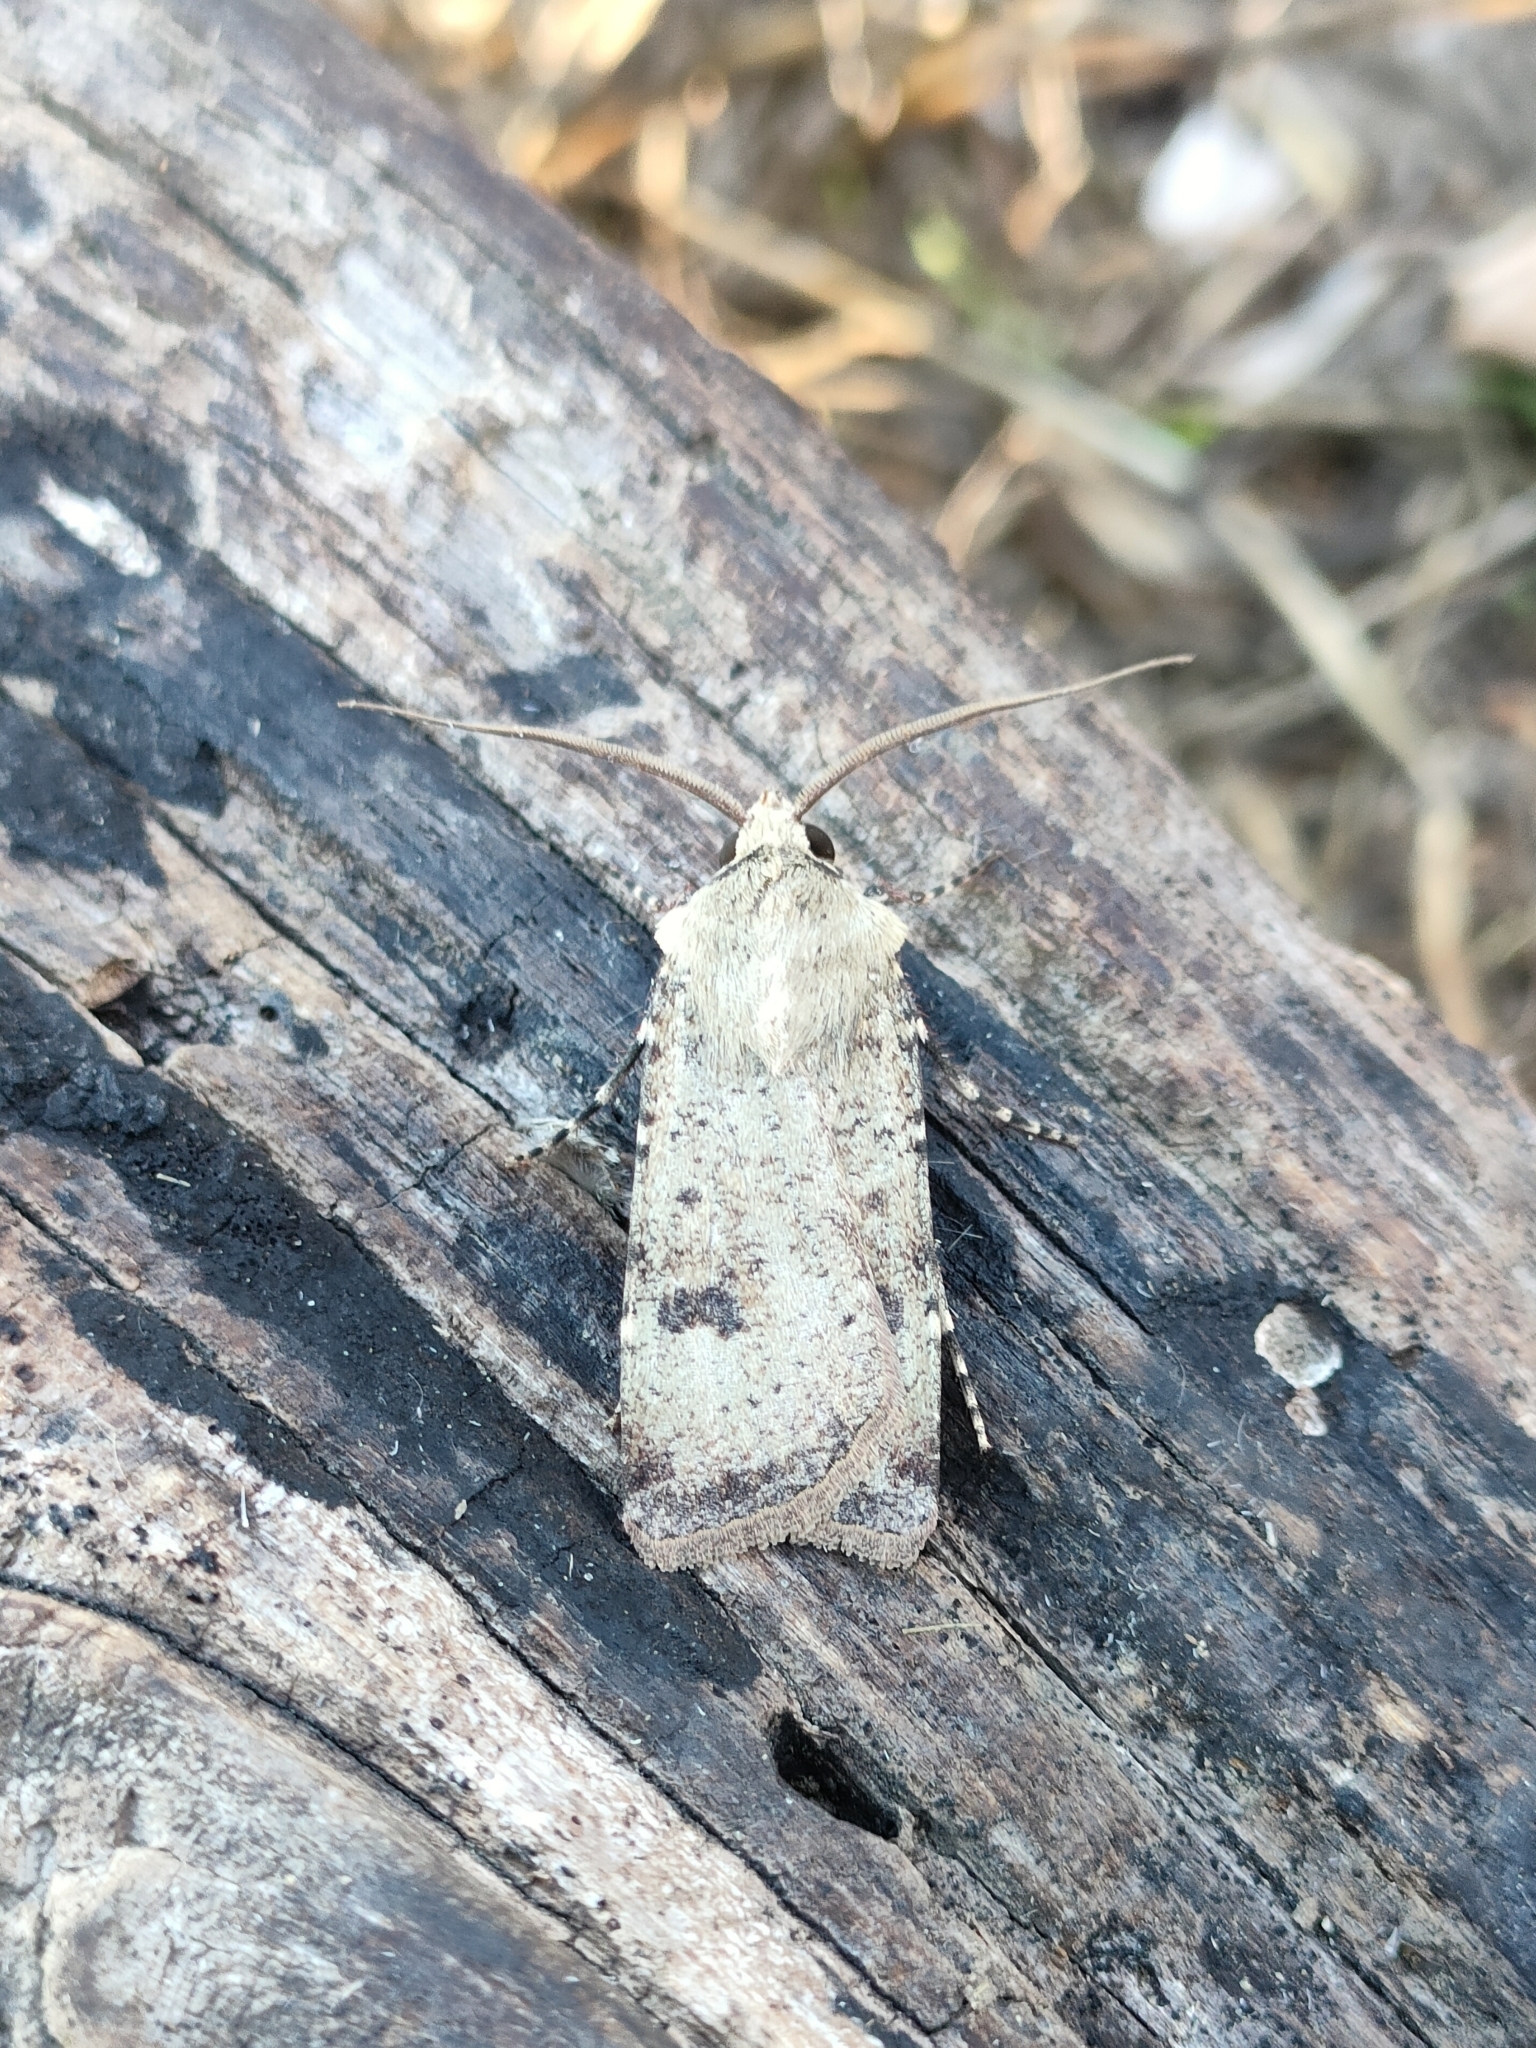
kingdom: Animalia
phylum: Arthropoda
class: Insecta
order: Lepidoptera
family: Noctuidae
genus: Agrotis
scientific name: Agrotis trux
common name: Crescent dart
